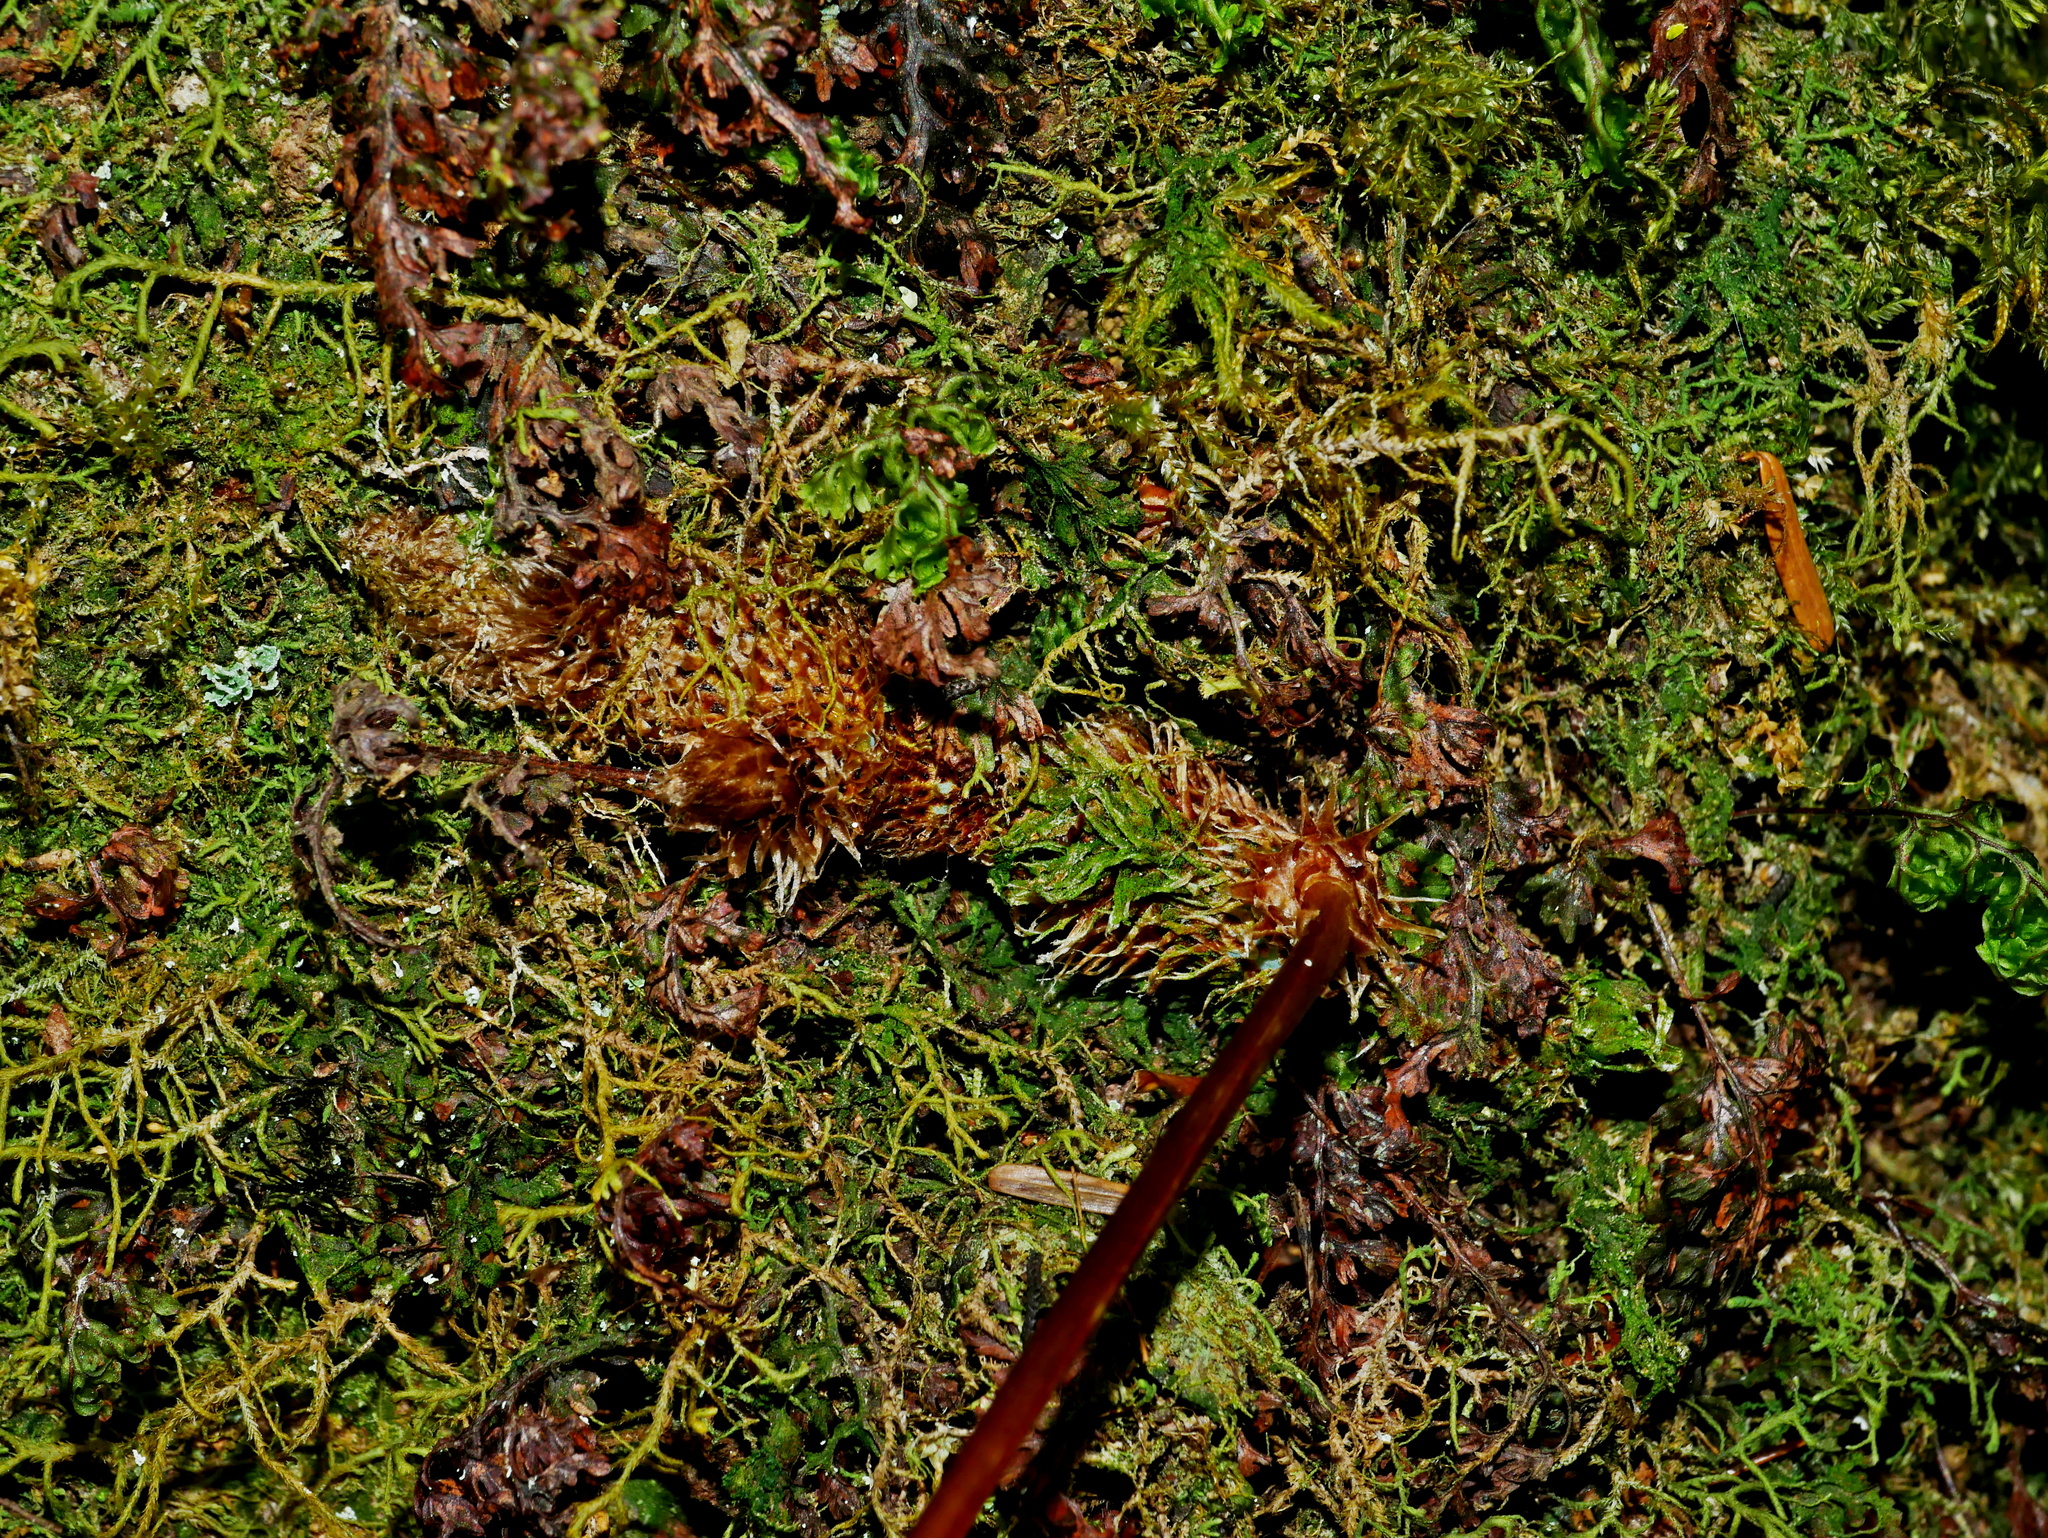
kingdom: Plantae
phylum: Tracheophyta
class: Polypodiopsida
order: Polypodiales
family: Polypodiaceae
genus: Selliguea
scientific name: Selliguea echinospora
